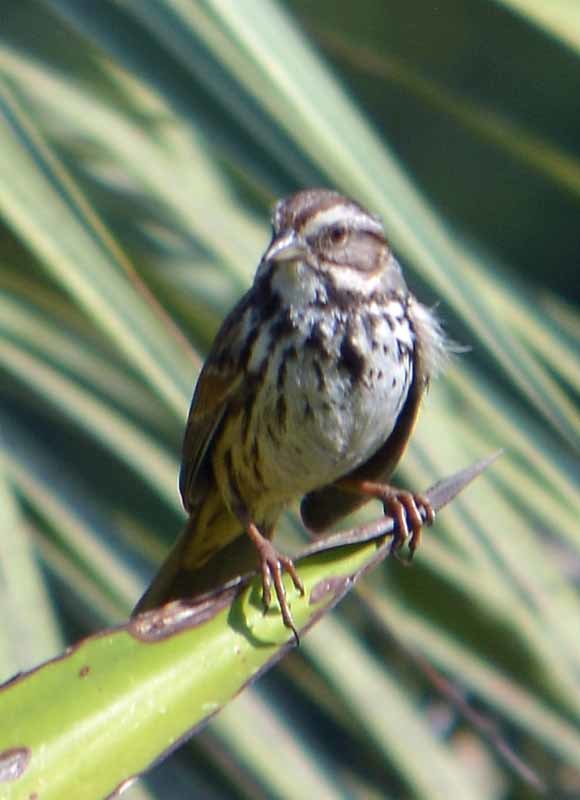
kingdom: Animalia
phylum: Chordata
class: Aves
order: Passeriformes
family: Passerellidae
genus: Melospiza
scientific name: Melospiza melodia
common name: Song sparrow
